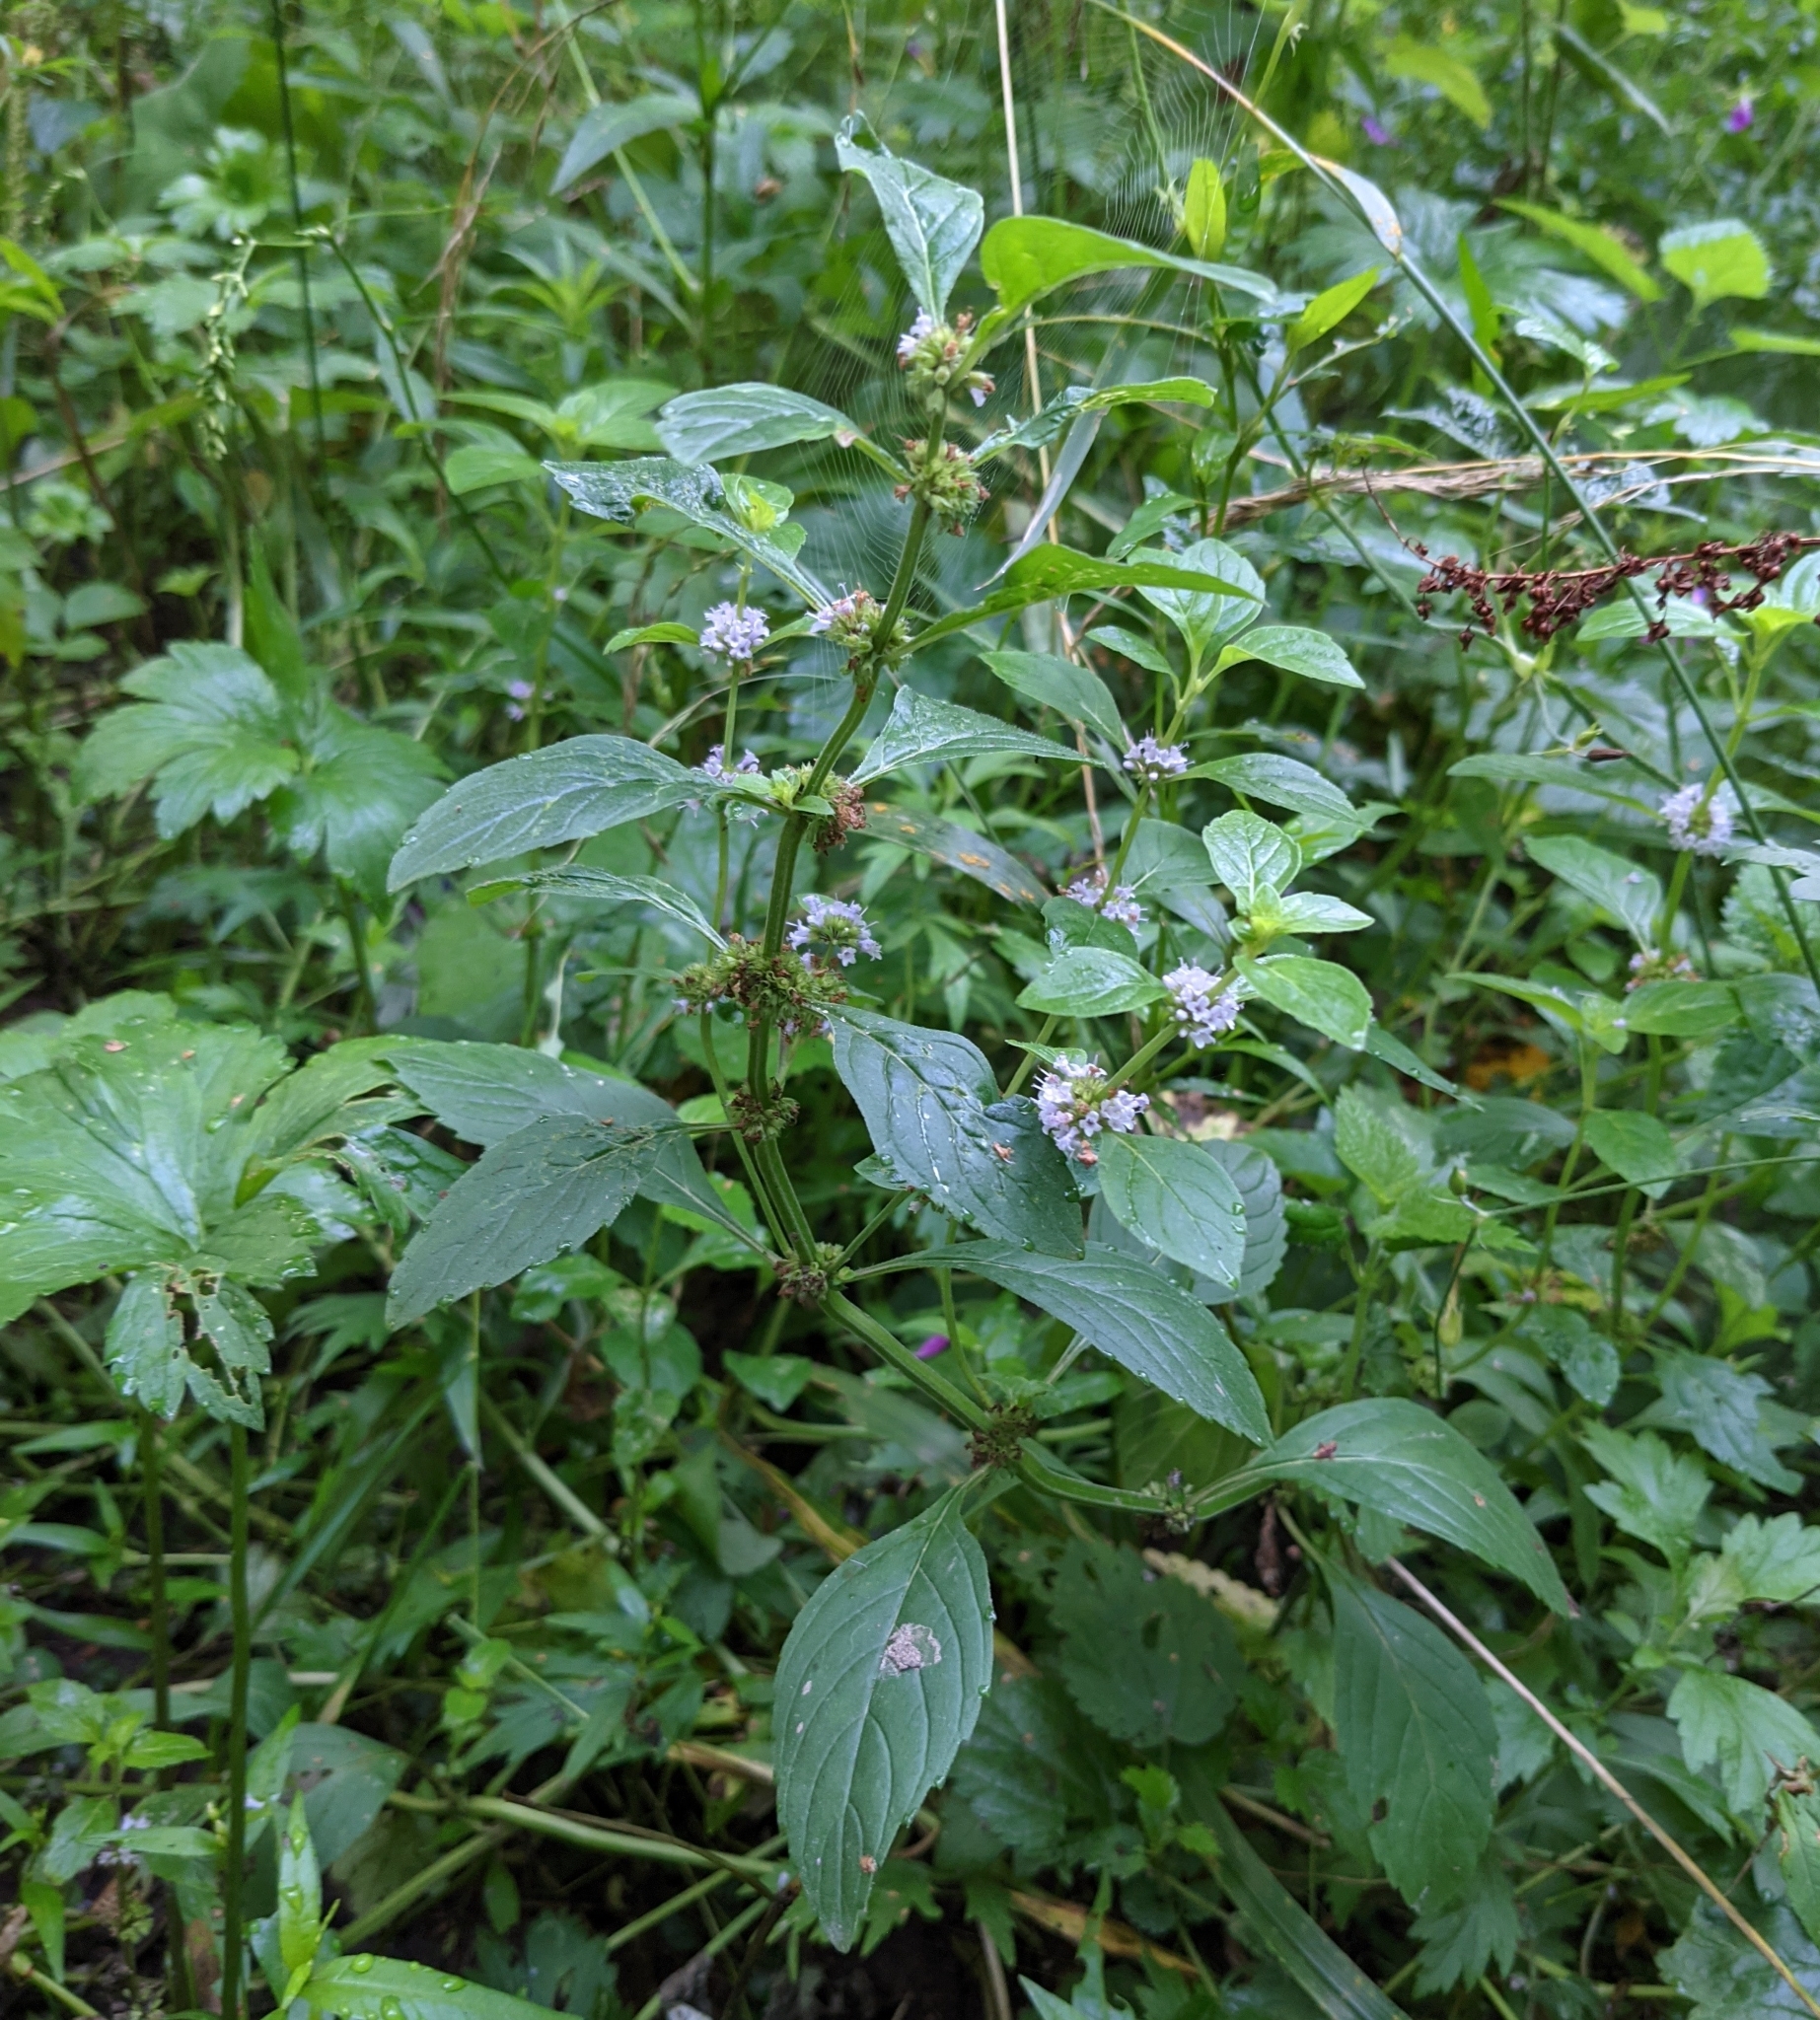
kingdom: Plantae
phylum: Tracheophyta
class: Magnoliopsida
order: Lamiales
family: Lamiaceae
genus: Mentha
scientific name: Mentha arvensis
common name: Corn mint
